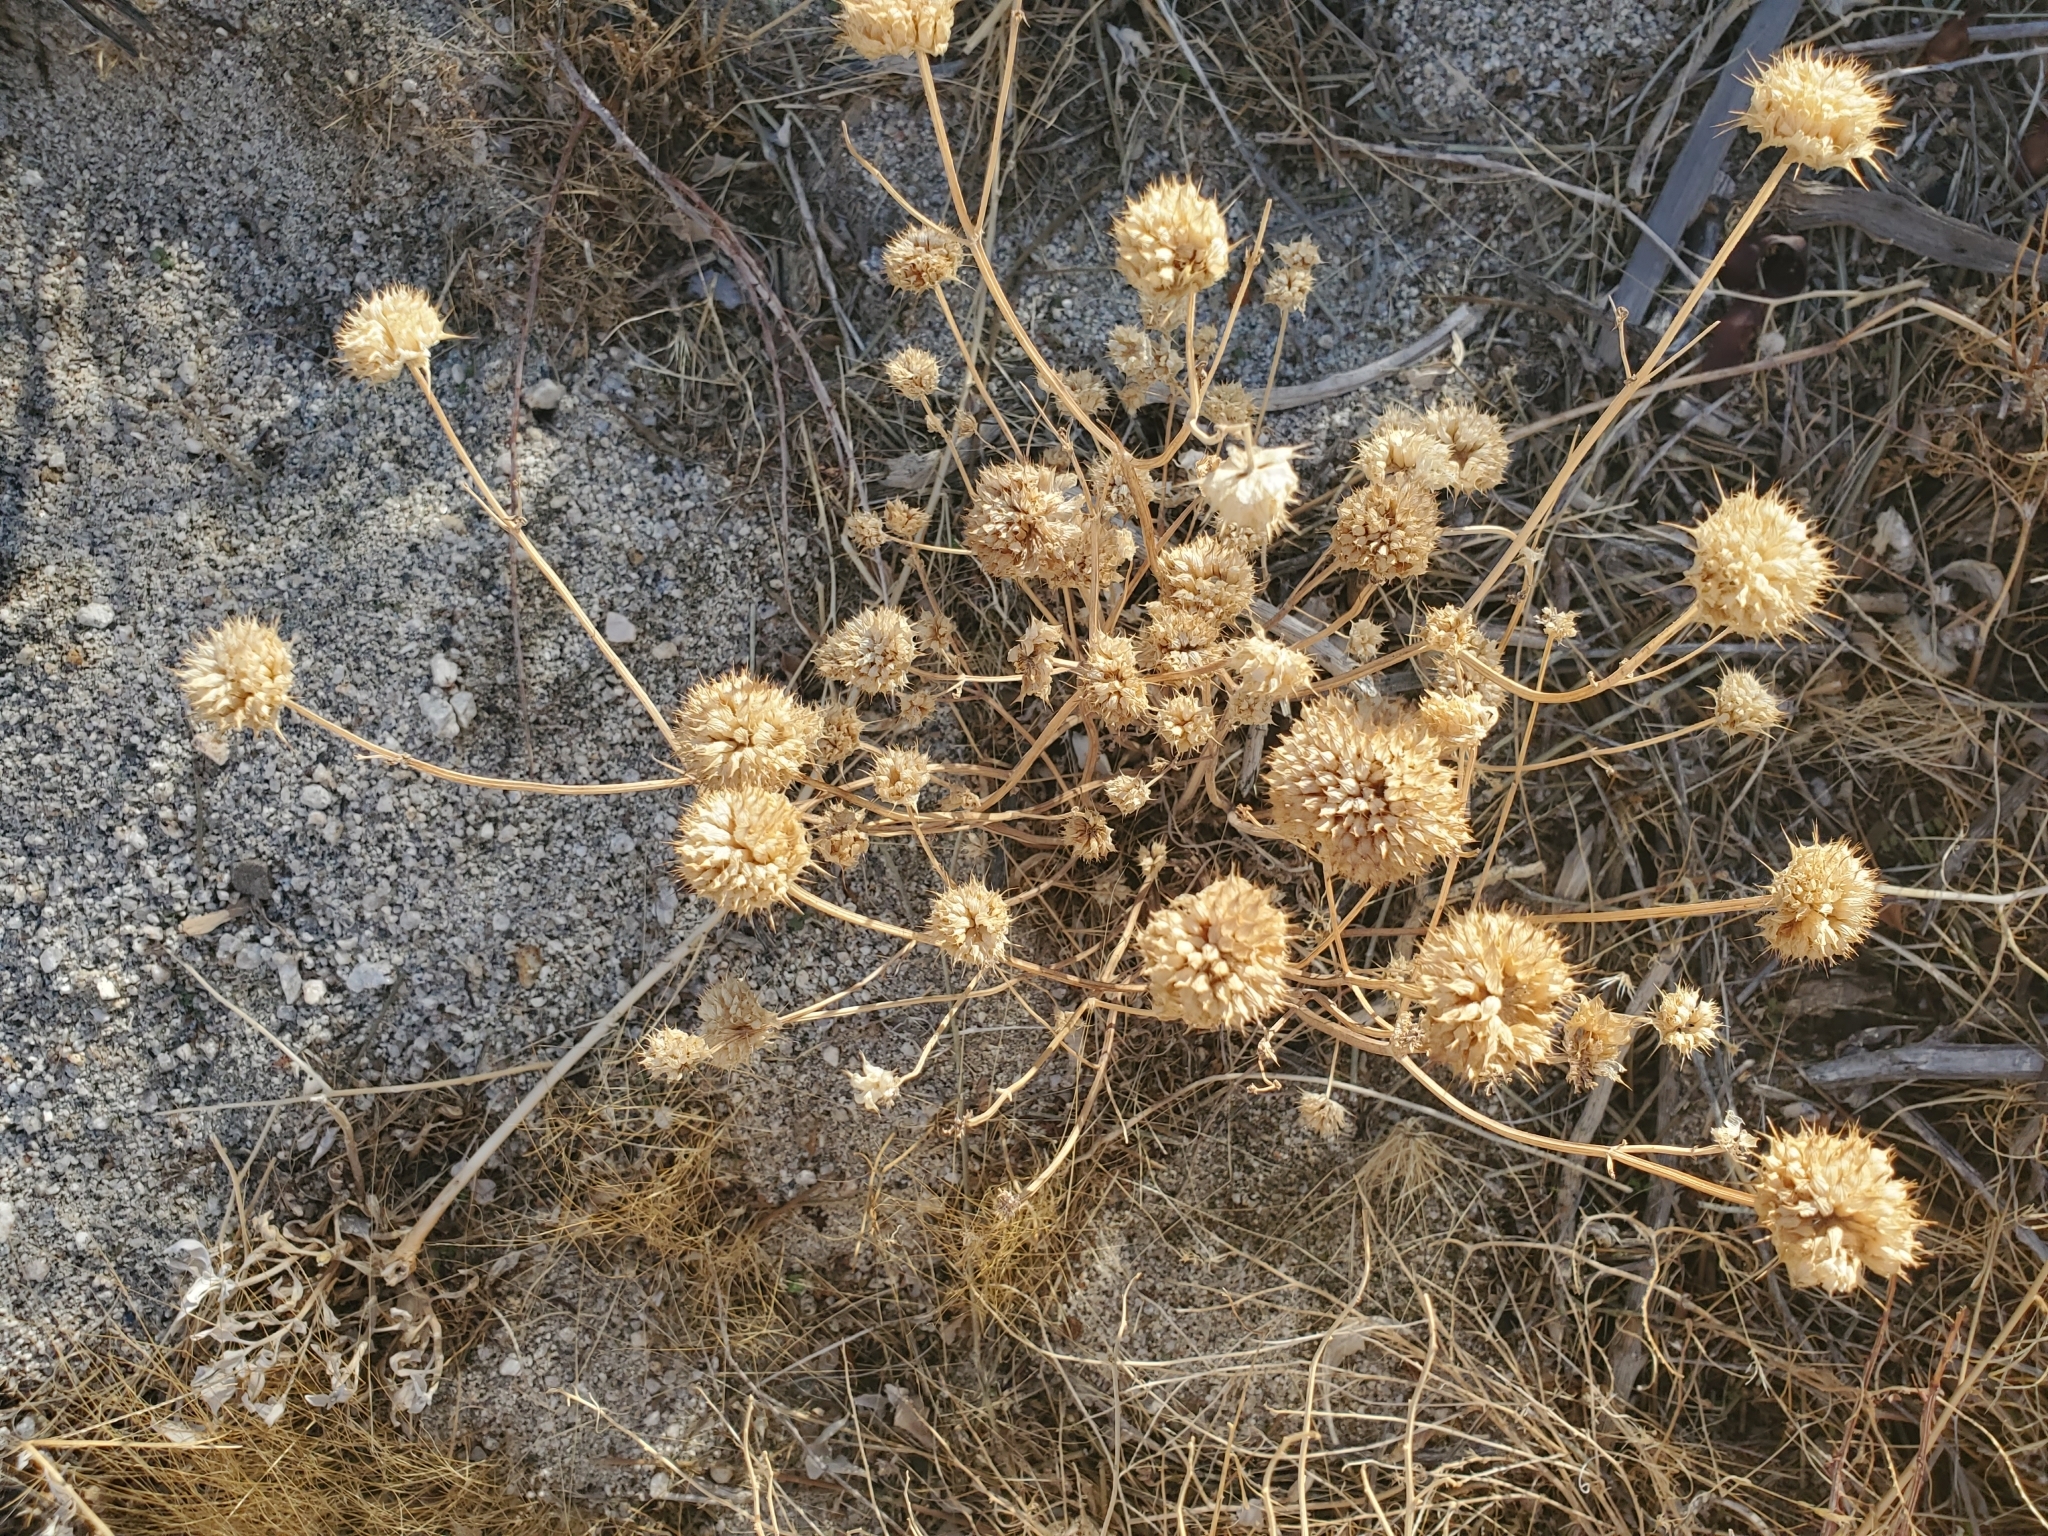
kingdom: Plantae
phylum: Tracheophyta
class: Magnoliopsida
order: Lamiales
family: Lamiaceae
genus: Salvia
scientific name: Salvia columbariae
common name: Chia
